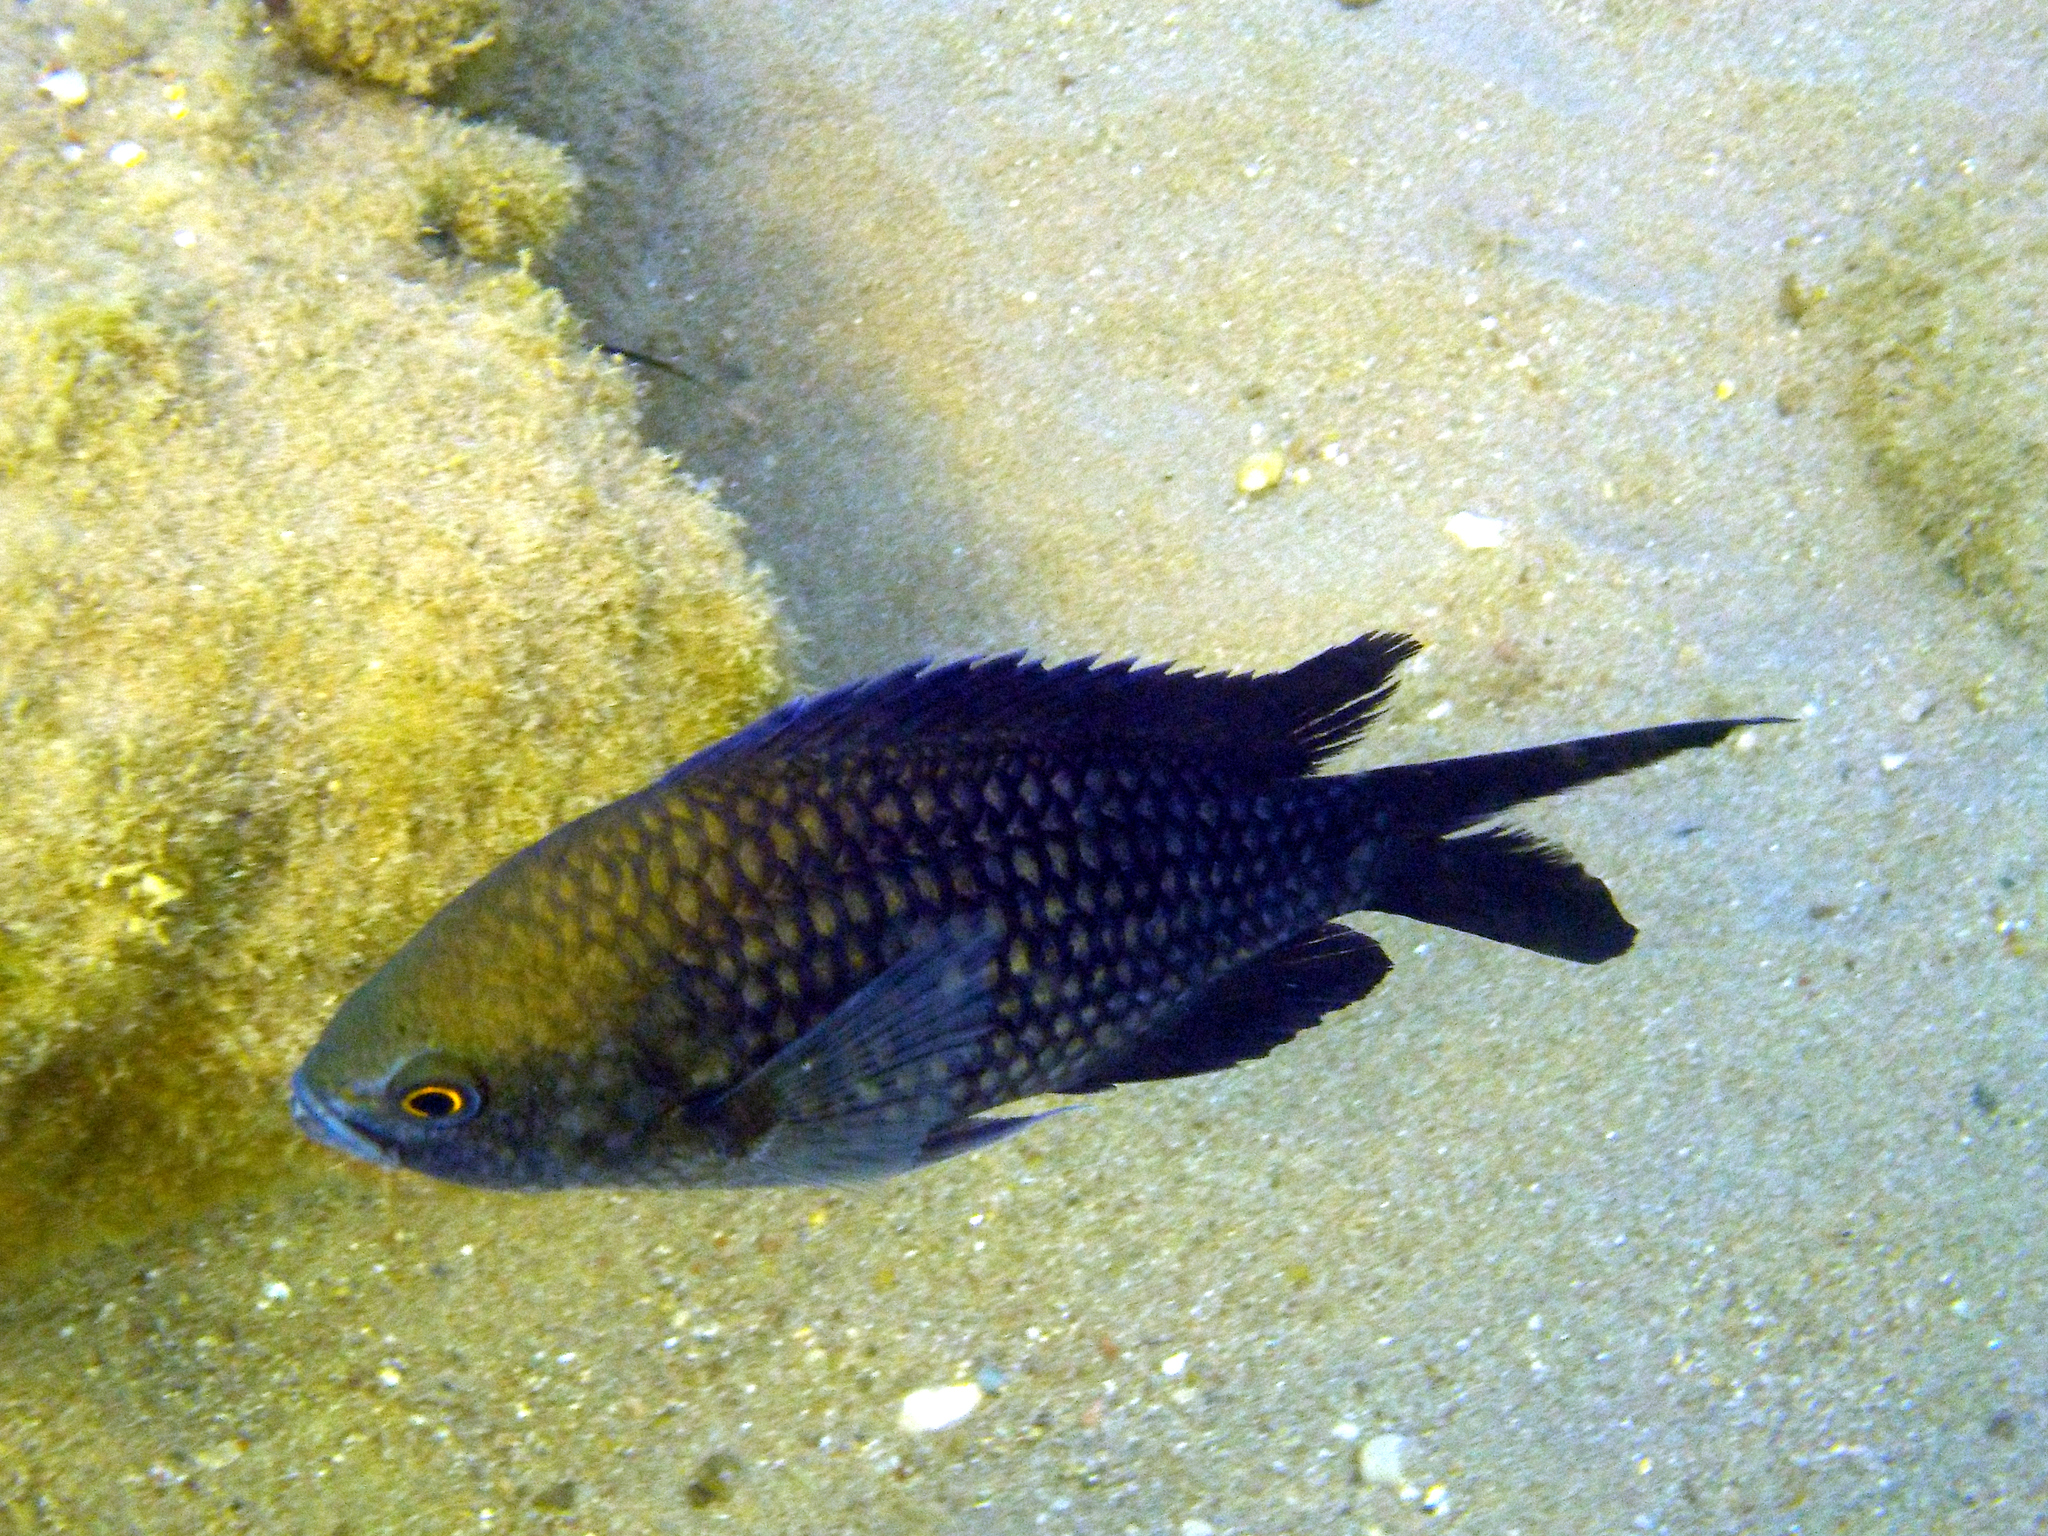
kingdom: Animalia
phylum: Chordata
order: Perciformes
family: Pomacentridae
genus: Chromis
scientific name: Chromis chromis
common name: Damselfish
